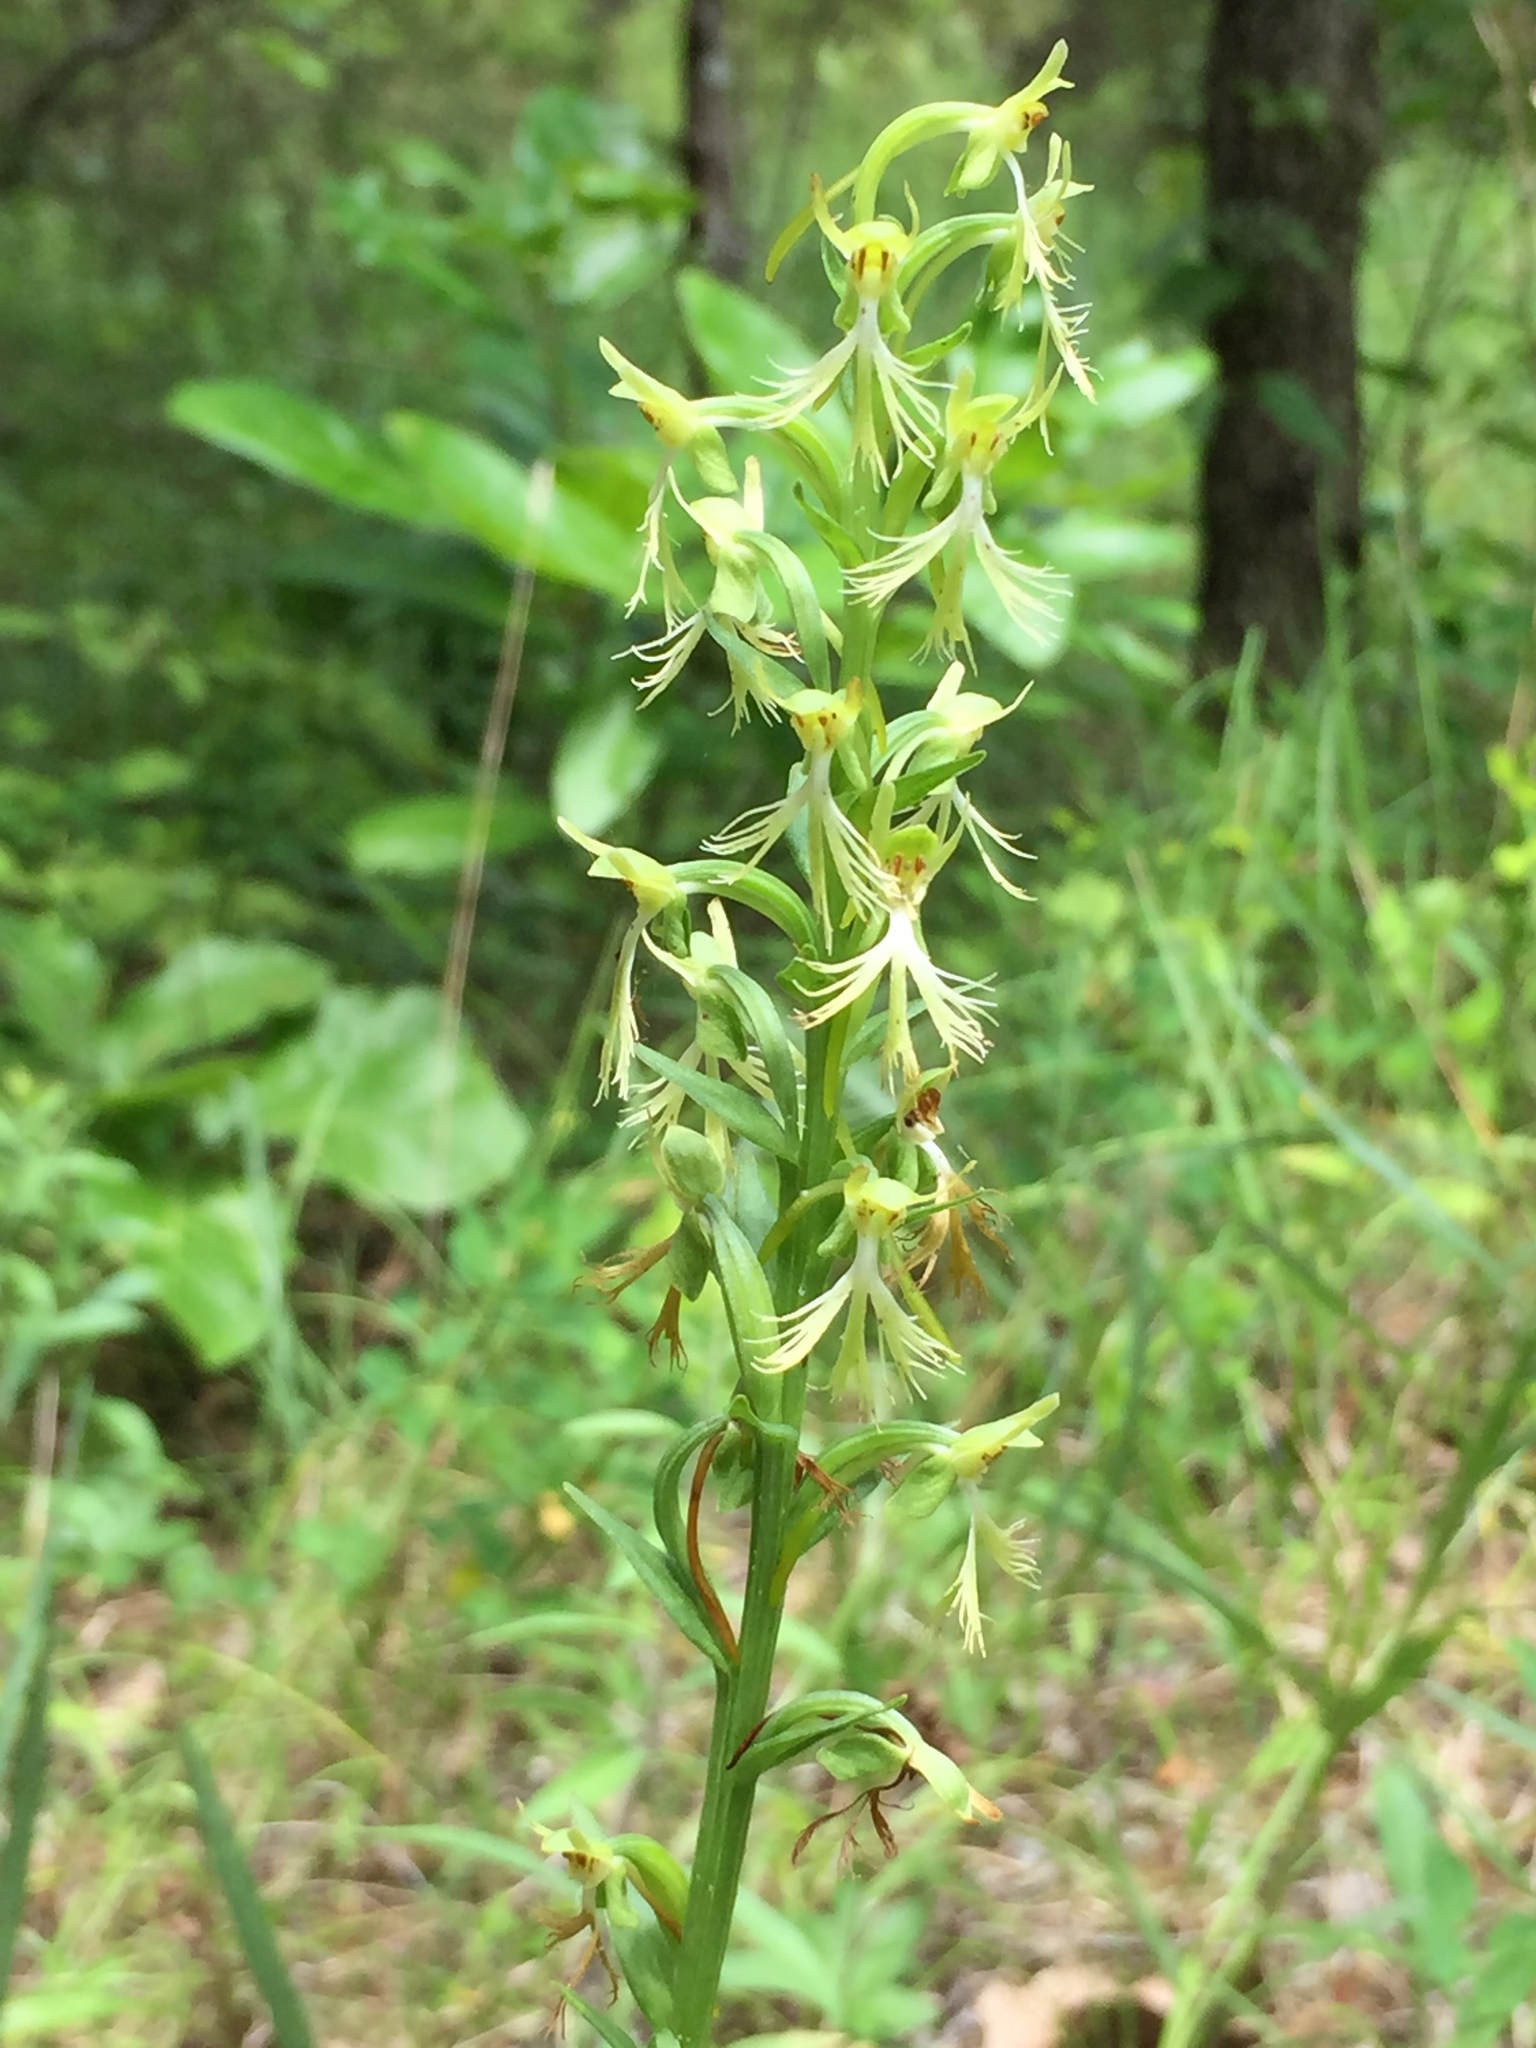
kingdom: Plantae
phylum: Tracheophyta
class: Liliopsida
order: Asparagales
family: Orchidaceae
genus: Platanthera
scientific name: Platanthera lacera
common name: Green fringed orchid
